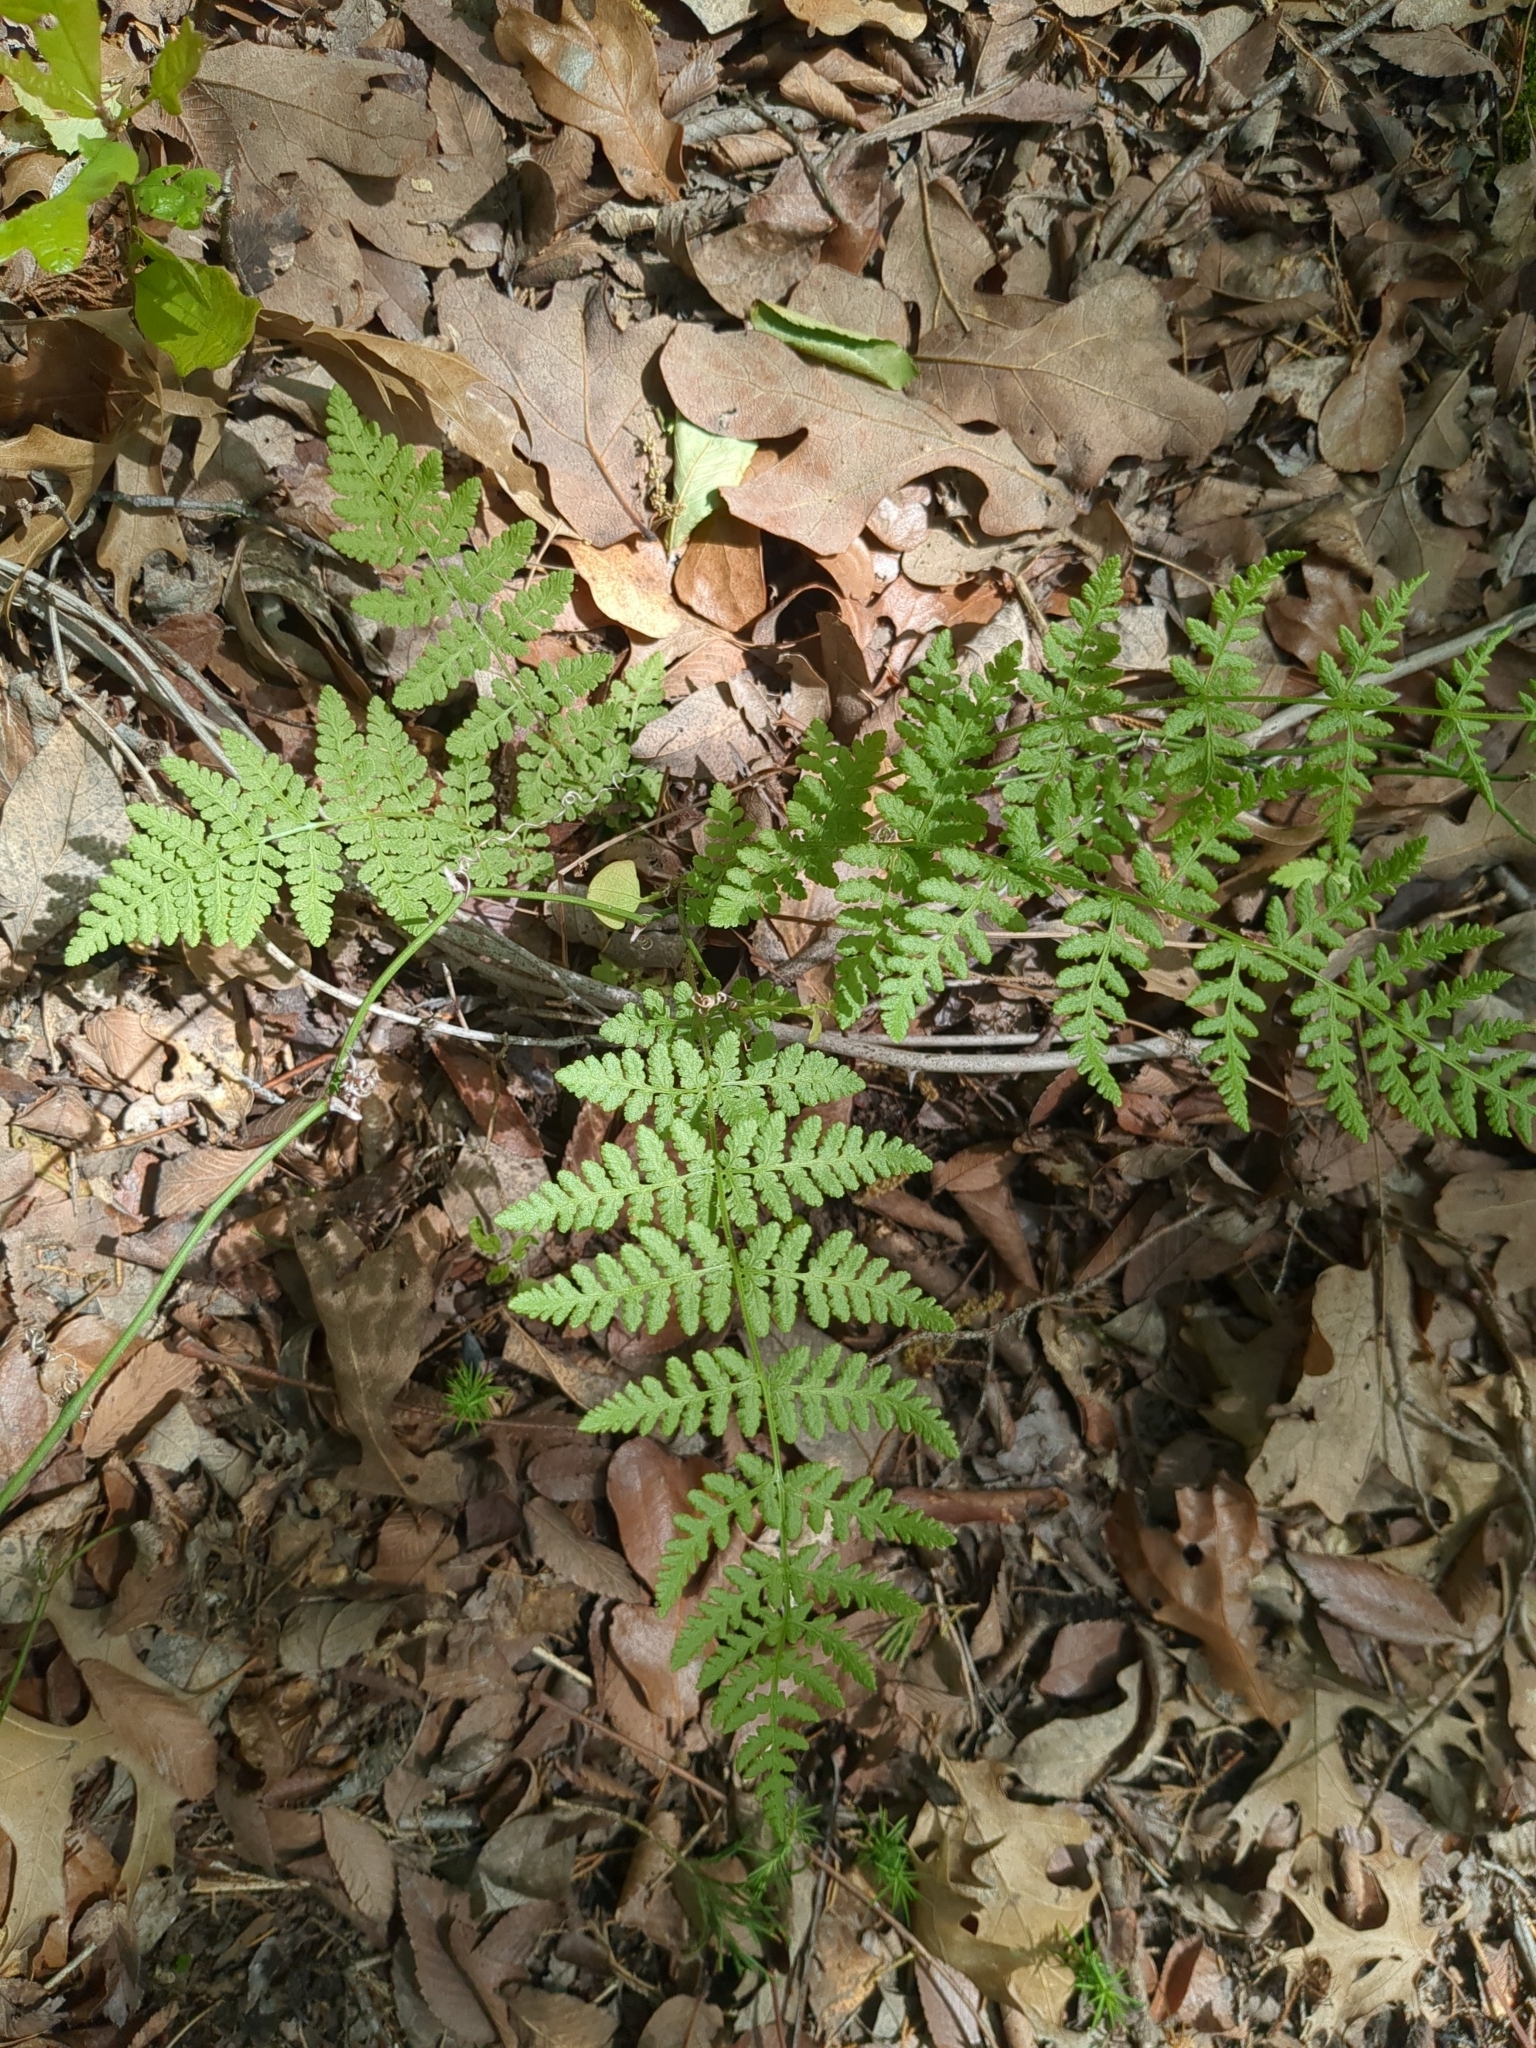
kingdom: Plantae
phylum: Tracheophyta
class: Polypodiopsida
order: Polypodiales
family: Woodsiaceae
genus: Physematium
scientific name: Physematium obtusum
